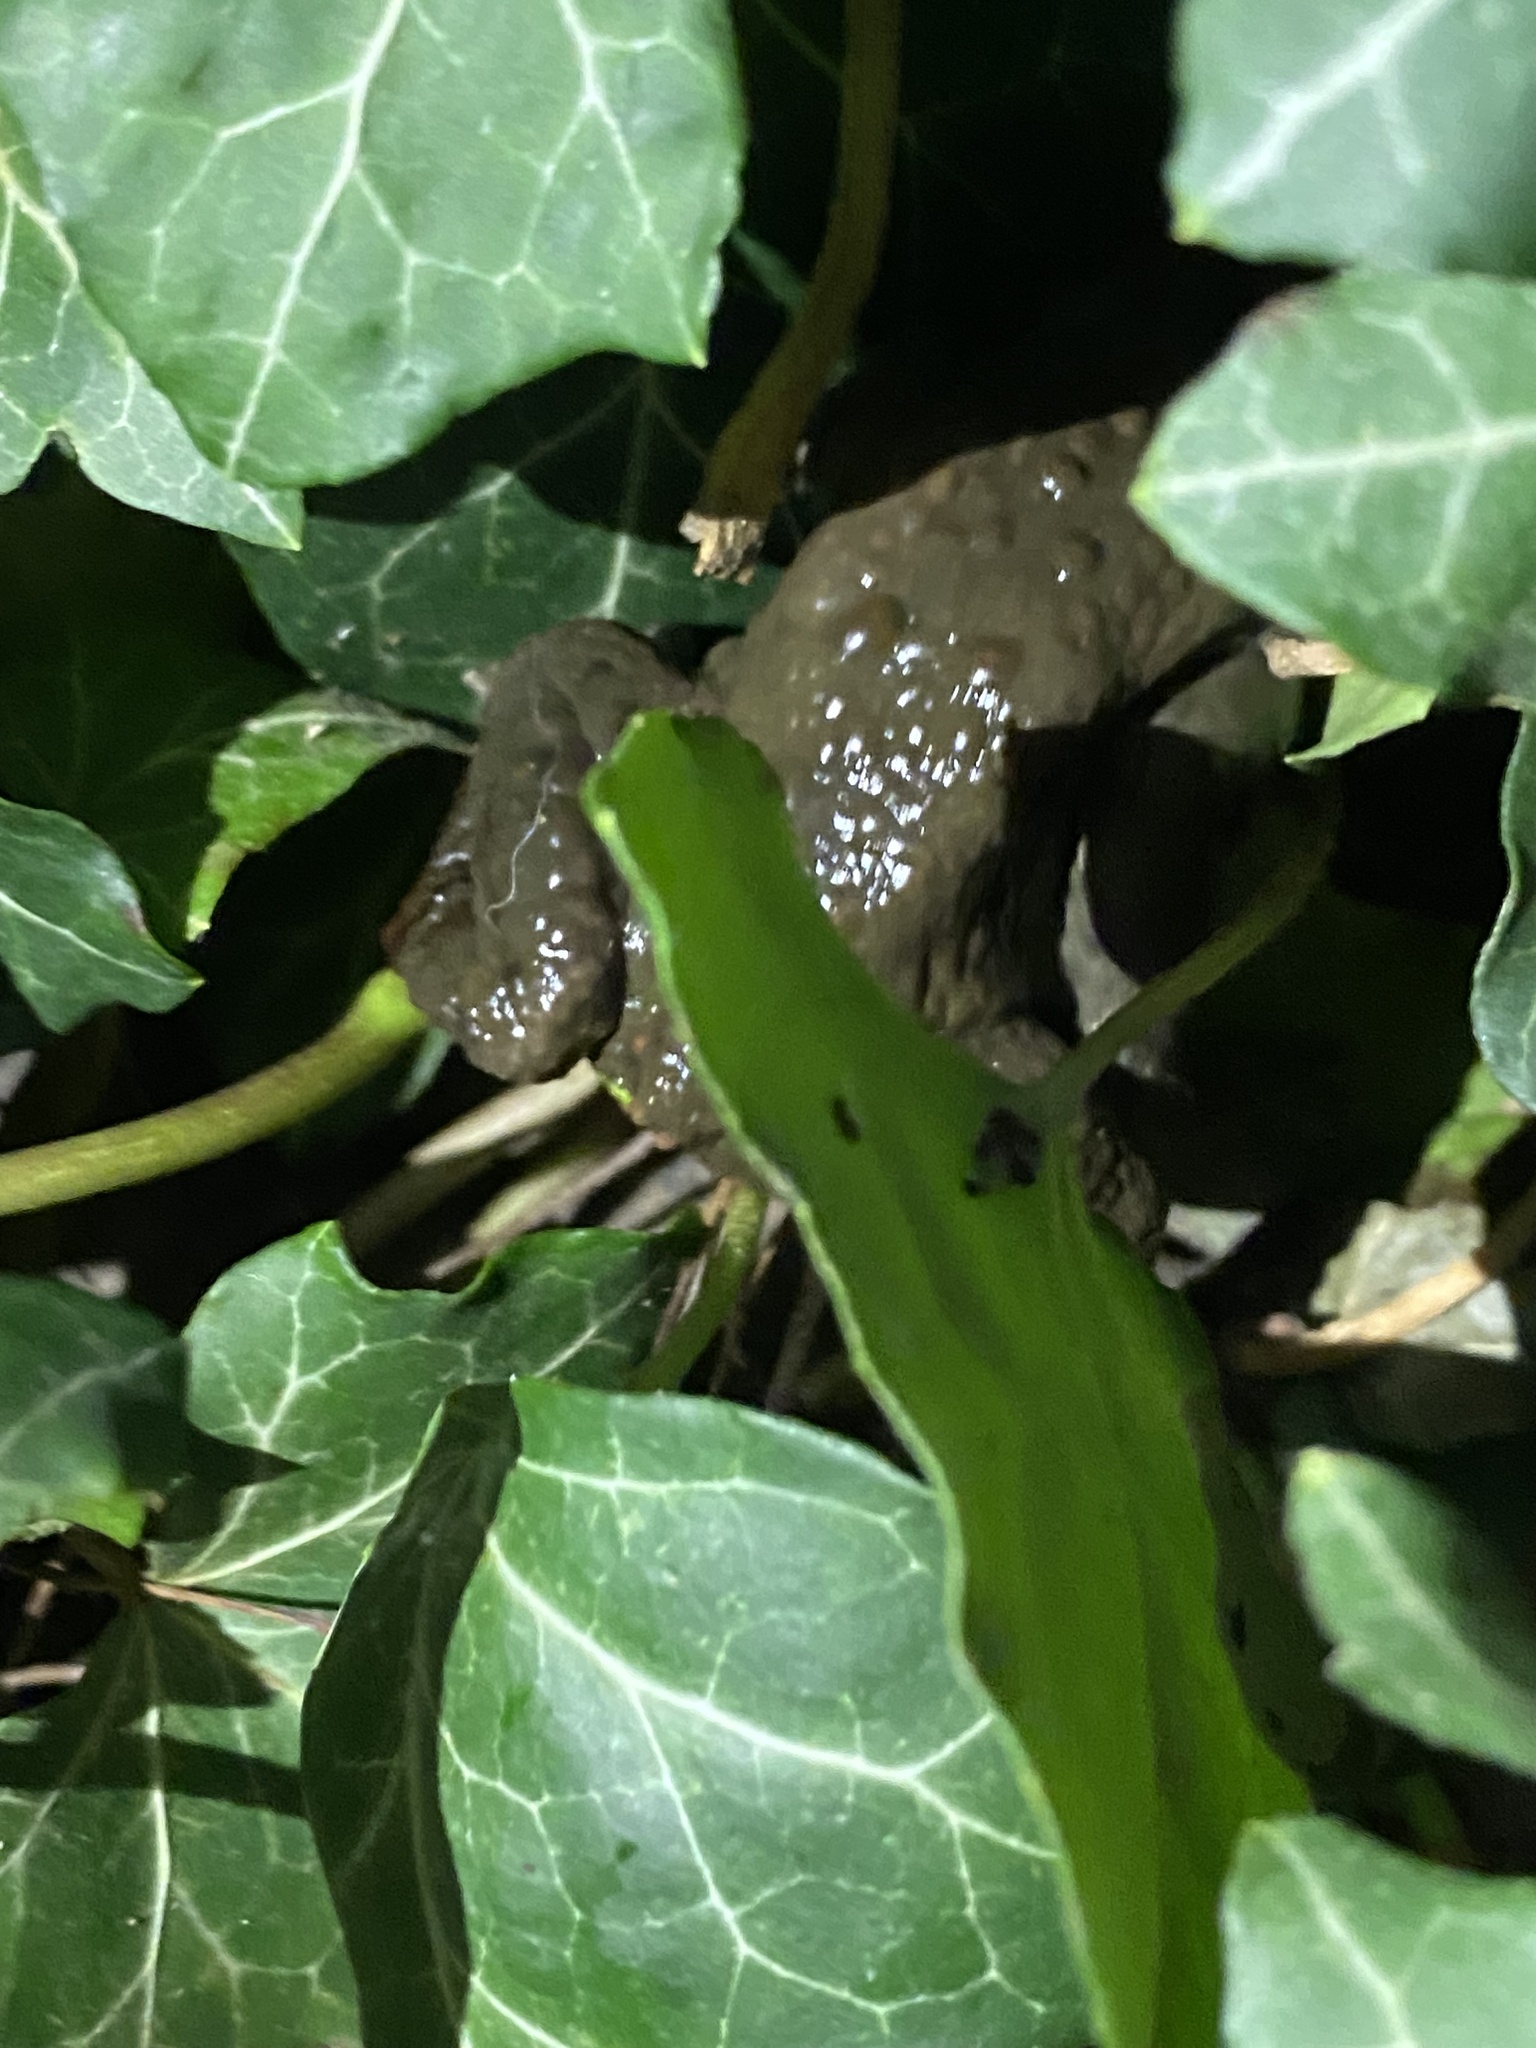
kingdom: Animalia
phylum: Chordata
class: Amphibia
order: Anura
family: Bufonidae
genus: Bufo
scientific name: Bufo bufo
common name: Common toad
